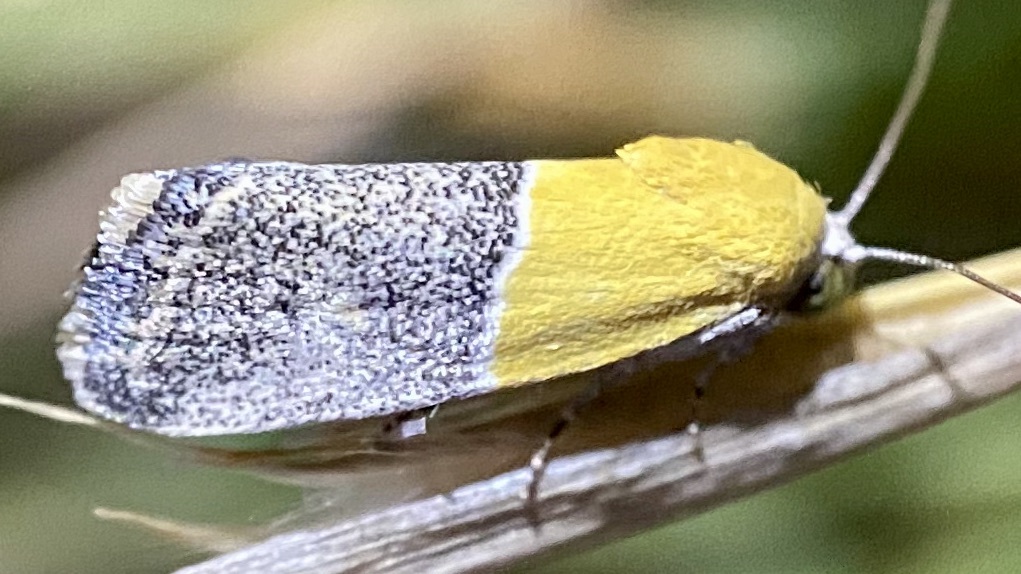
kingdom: Animalia
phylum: Arthropoda
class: Insecta
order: Lepidoptera
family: Noctuidae
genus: Acontia
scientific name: Acontia clausula
